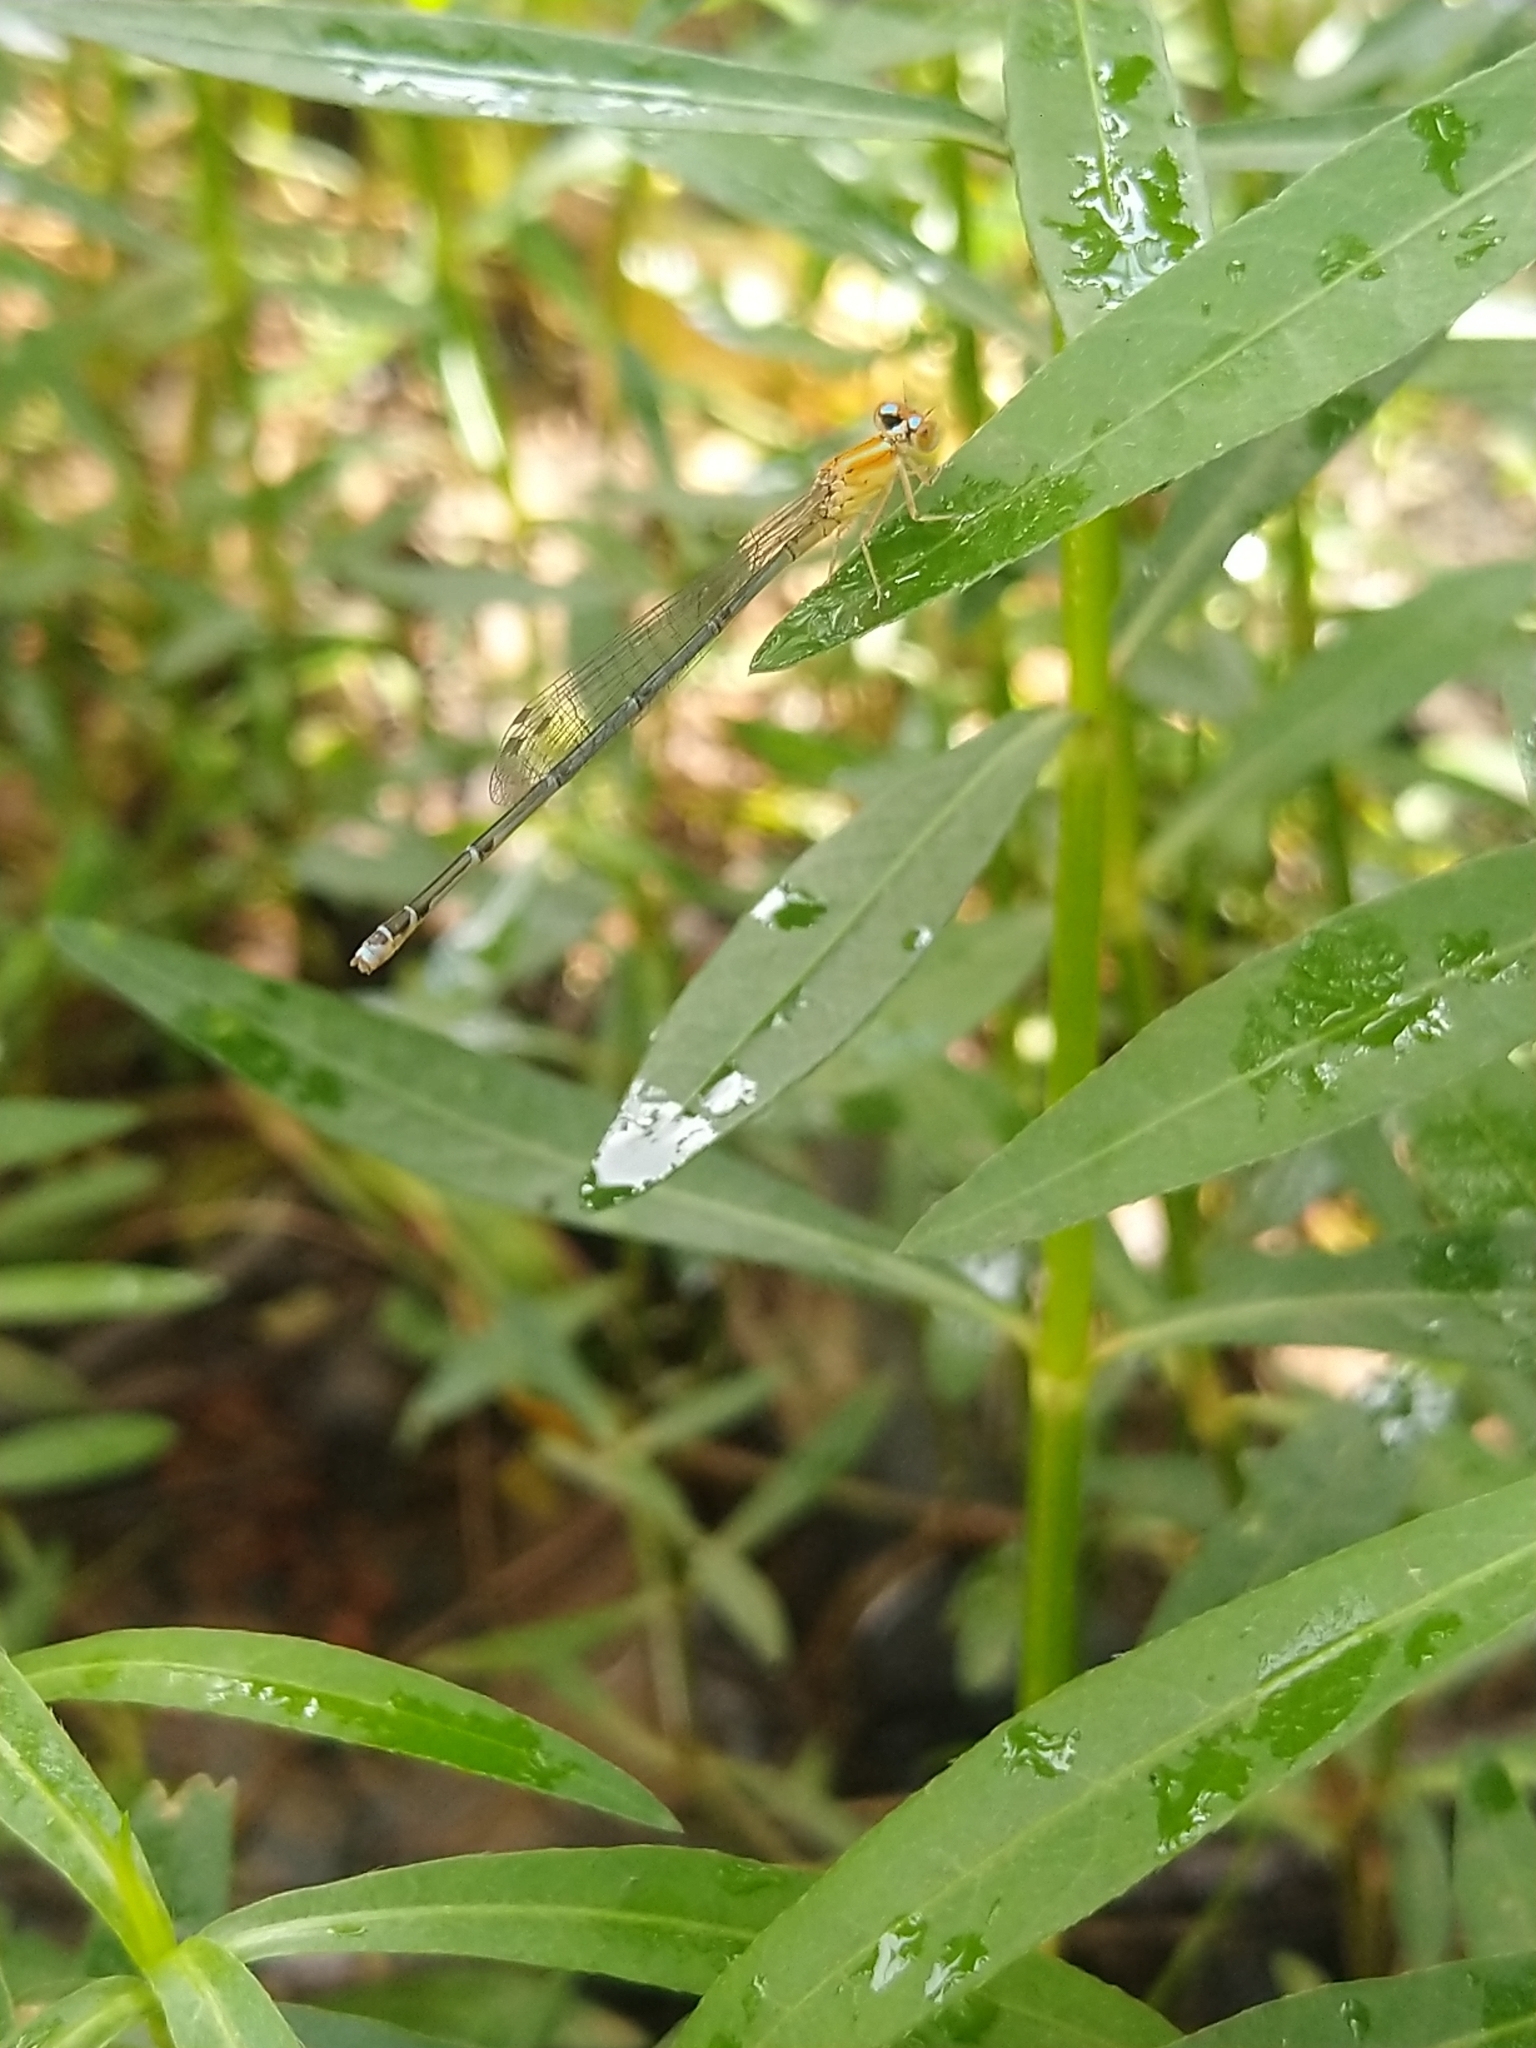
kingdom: Animalia
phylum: Arthropoda
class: Insecta
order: Odonata
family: Coenagrionidae
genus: Pseudagrion
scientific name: Pseudagrion microcephalum
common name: Blue riverdamsel
